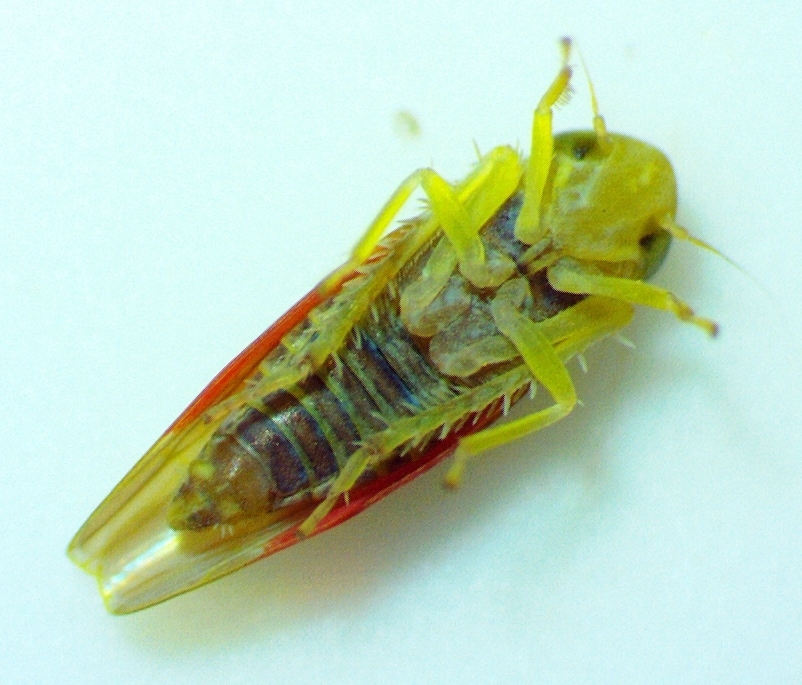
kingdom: Animalia
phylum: Arthropoda
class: Insecta
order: Hemiptera
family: Cicadellidae
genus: Erythridula
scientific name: Erythridula crevecoeuri
